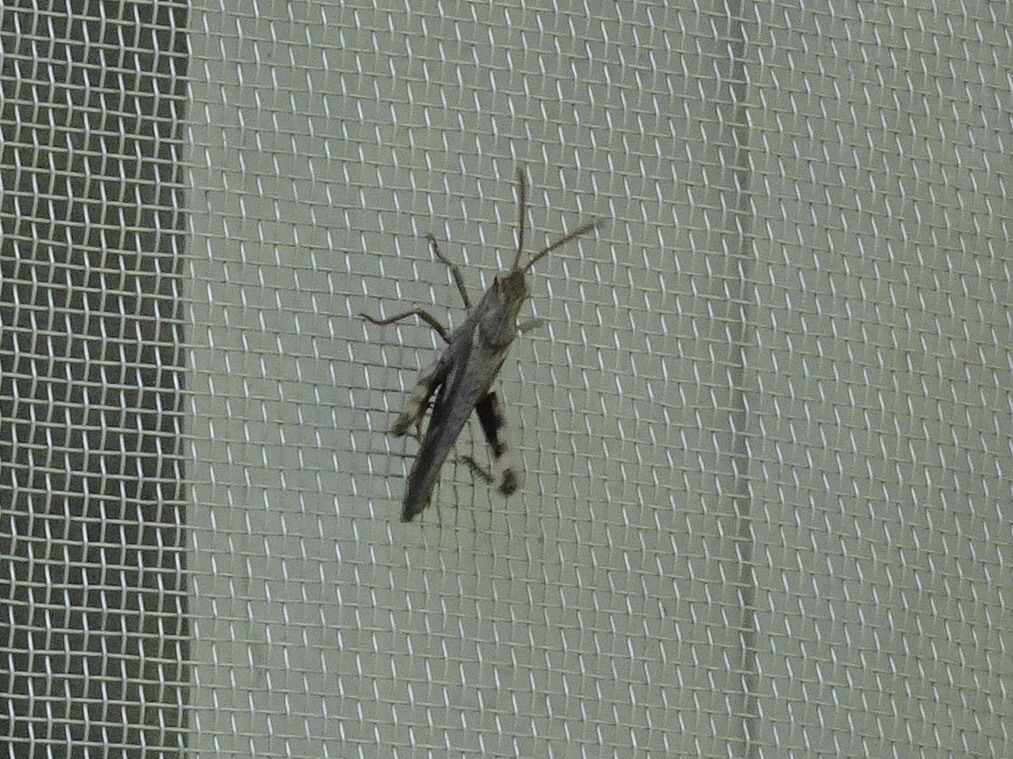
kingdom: Animalia
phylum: Arthropoda
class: Insecta
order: Orthoptera
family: Acrididae
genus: Chortophaga
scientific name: Chortophaga viridifasciata
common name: Green-striped grasshopper
